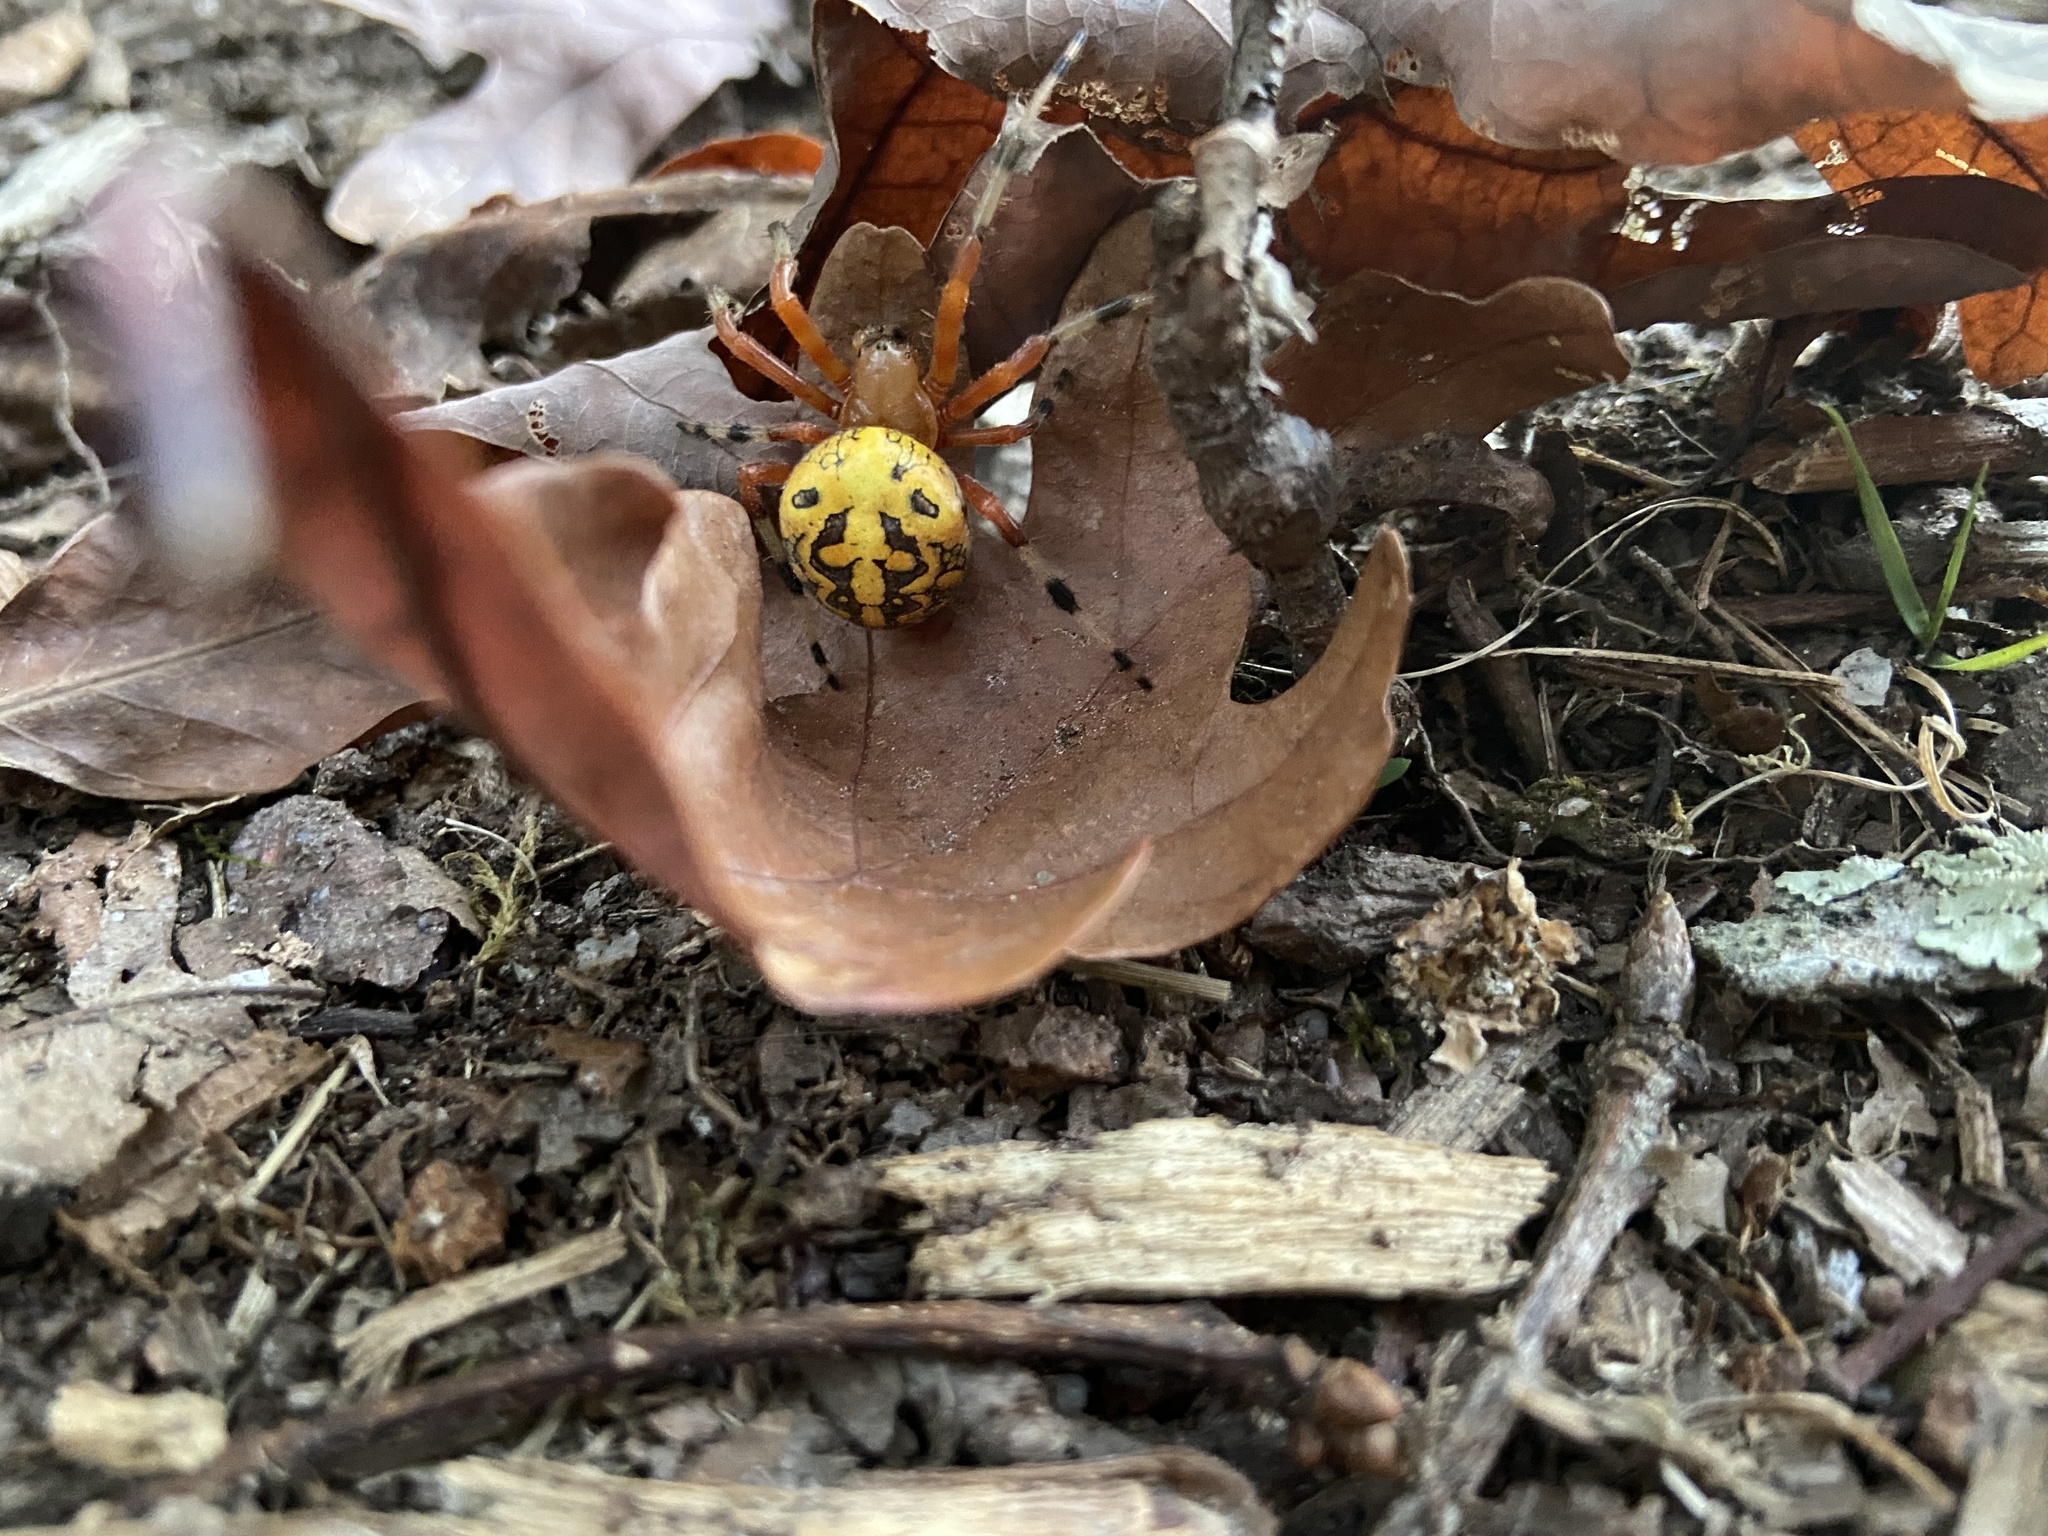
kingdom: Animalia
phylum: Arthropoda
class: Arachnida
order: Araneae
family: Araneidae
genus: Araneus
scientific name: Araneus marmoreus
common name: Marbled orbweaver
